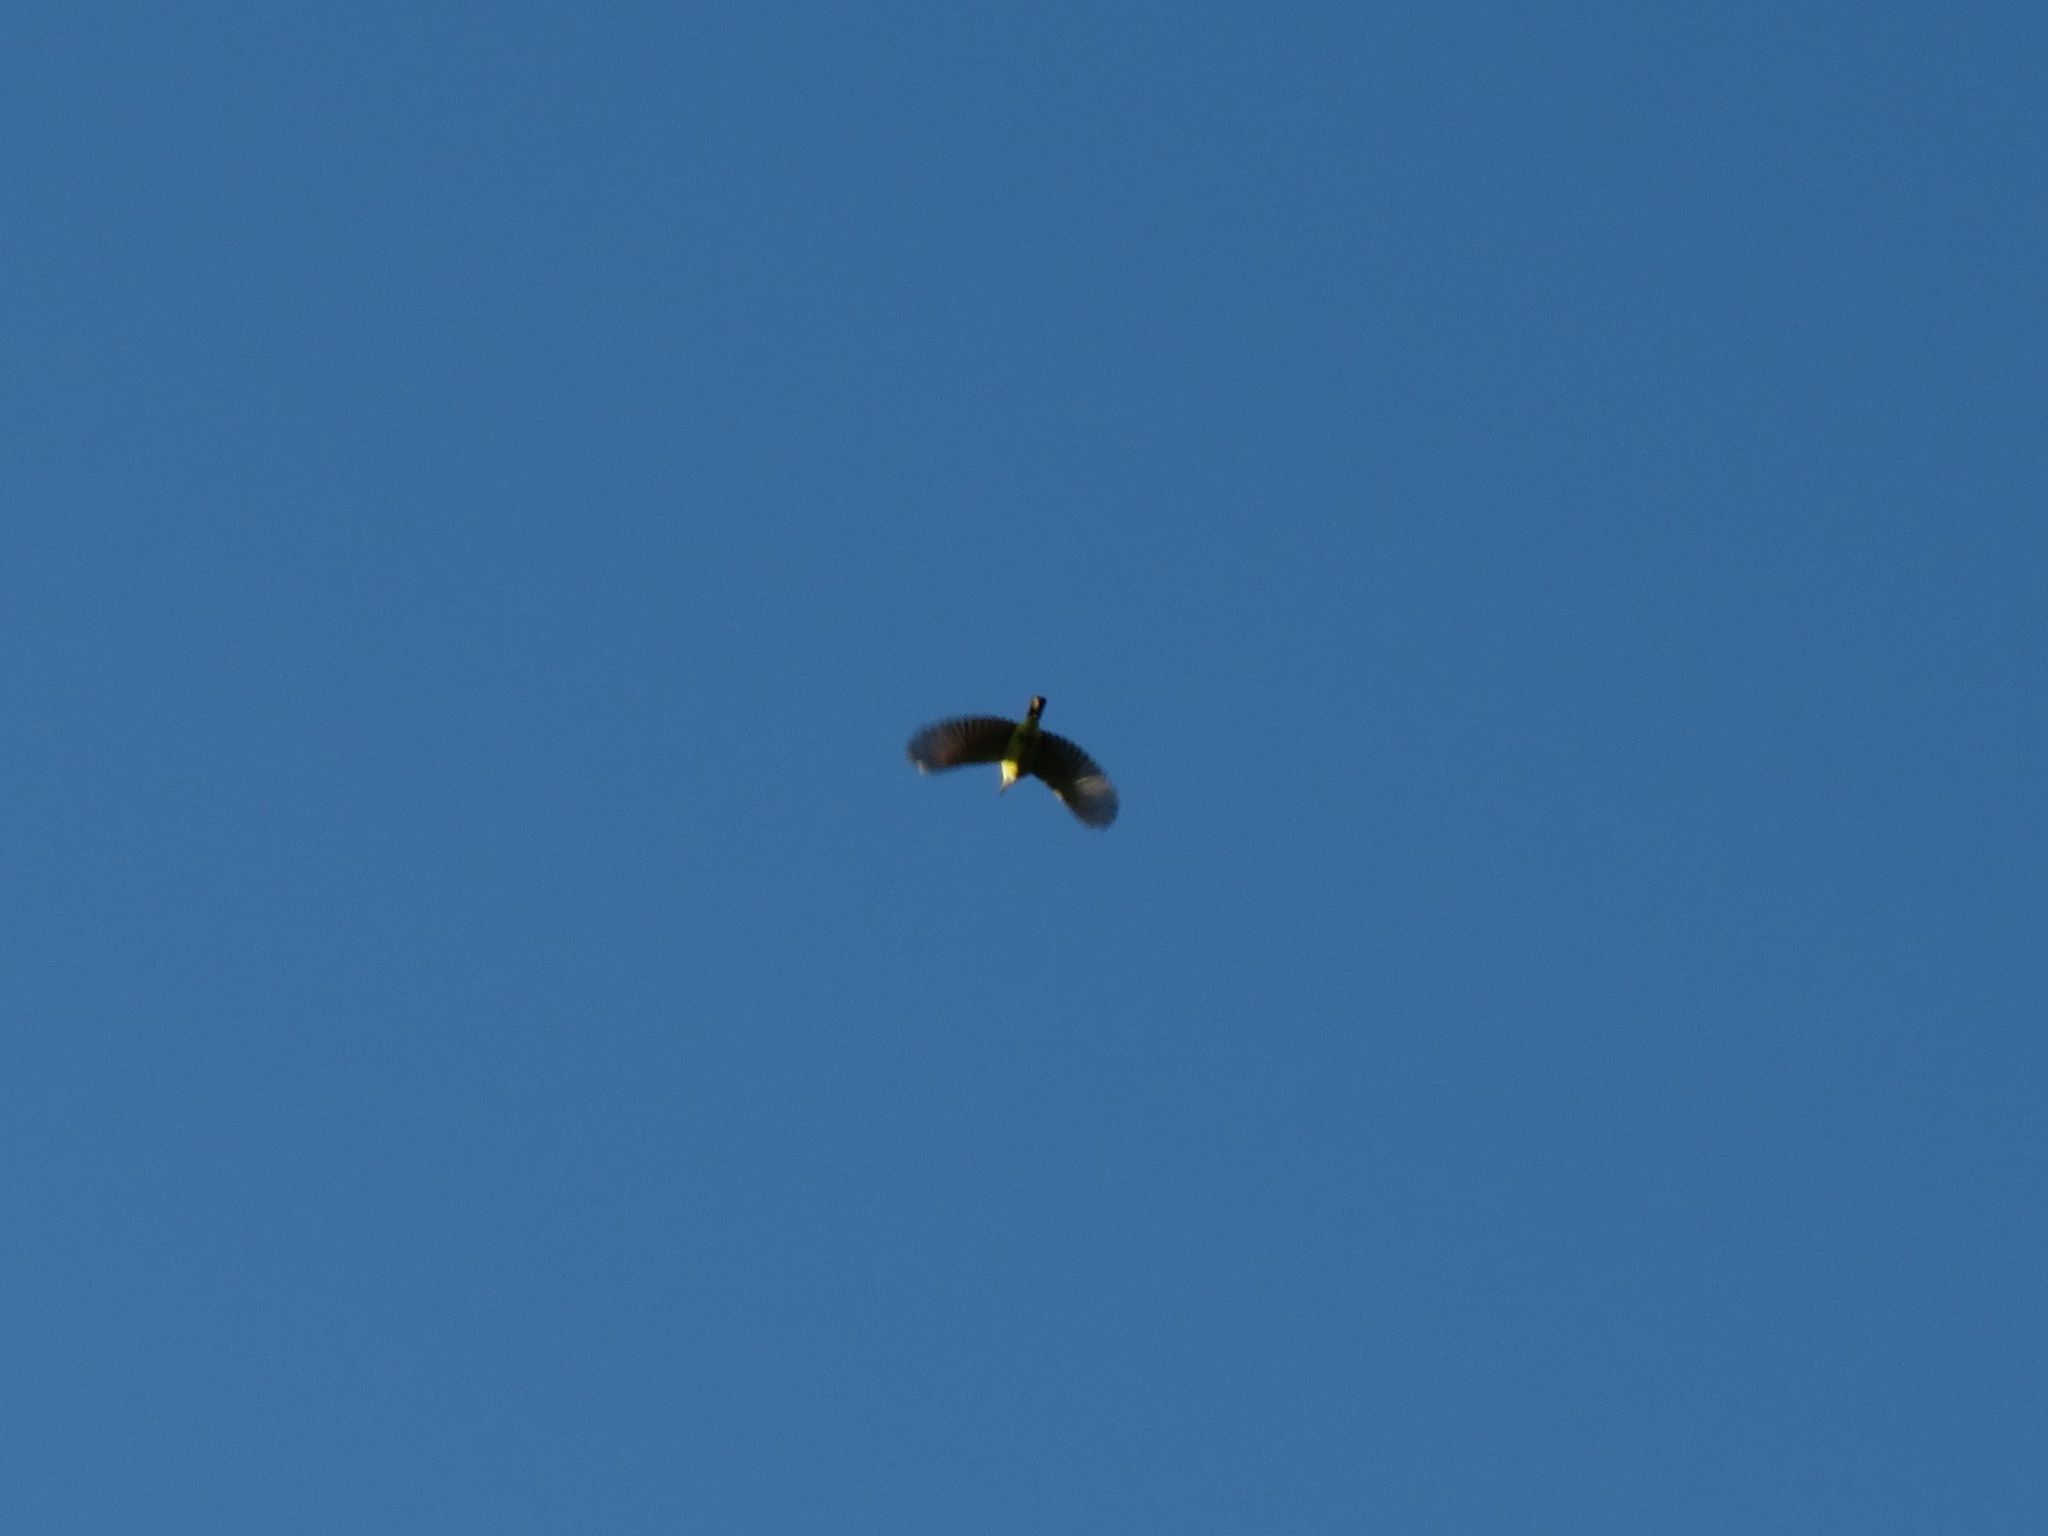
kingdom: Animalia
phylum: Chordata
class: Aves
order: Passeriformes
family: Tyrannidae
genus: Pitangus
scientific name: Pitangus sulphuratus
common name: Great kiskadee
